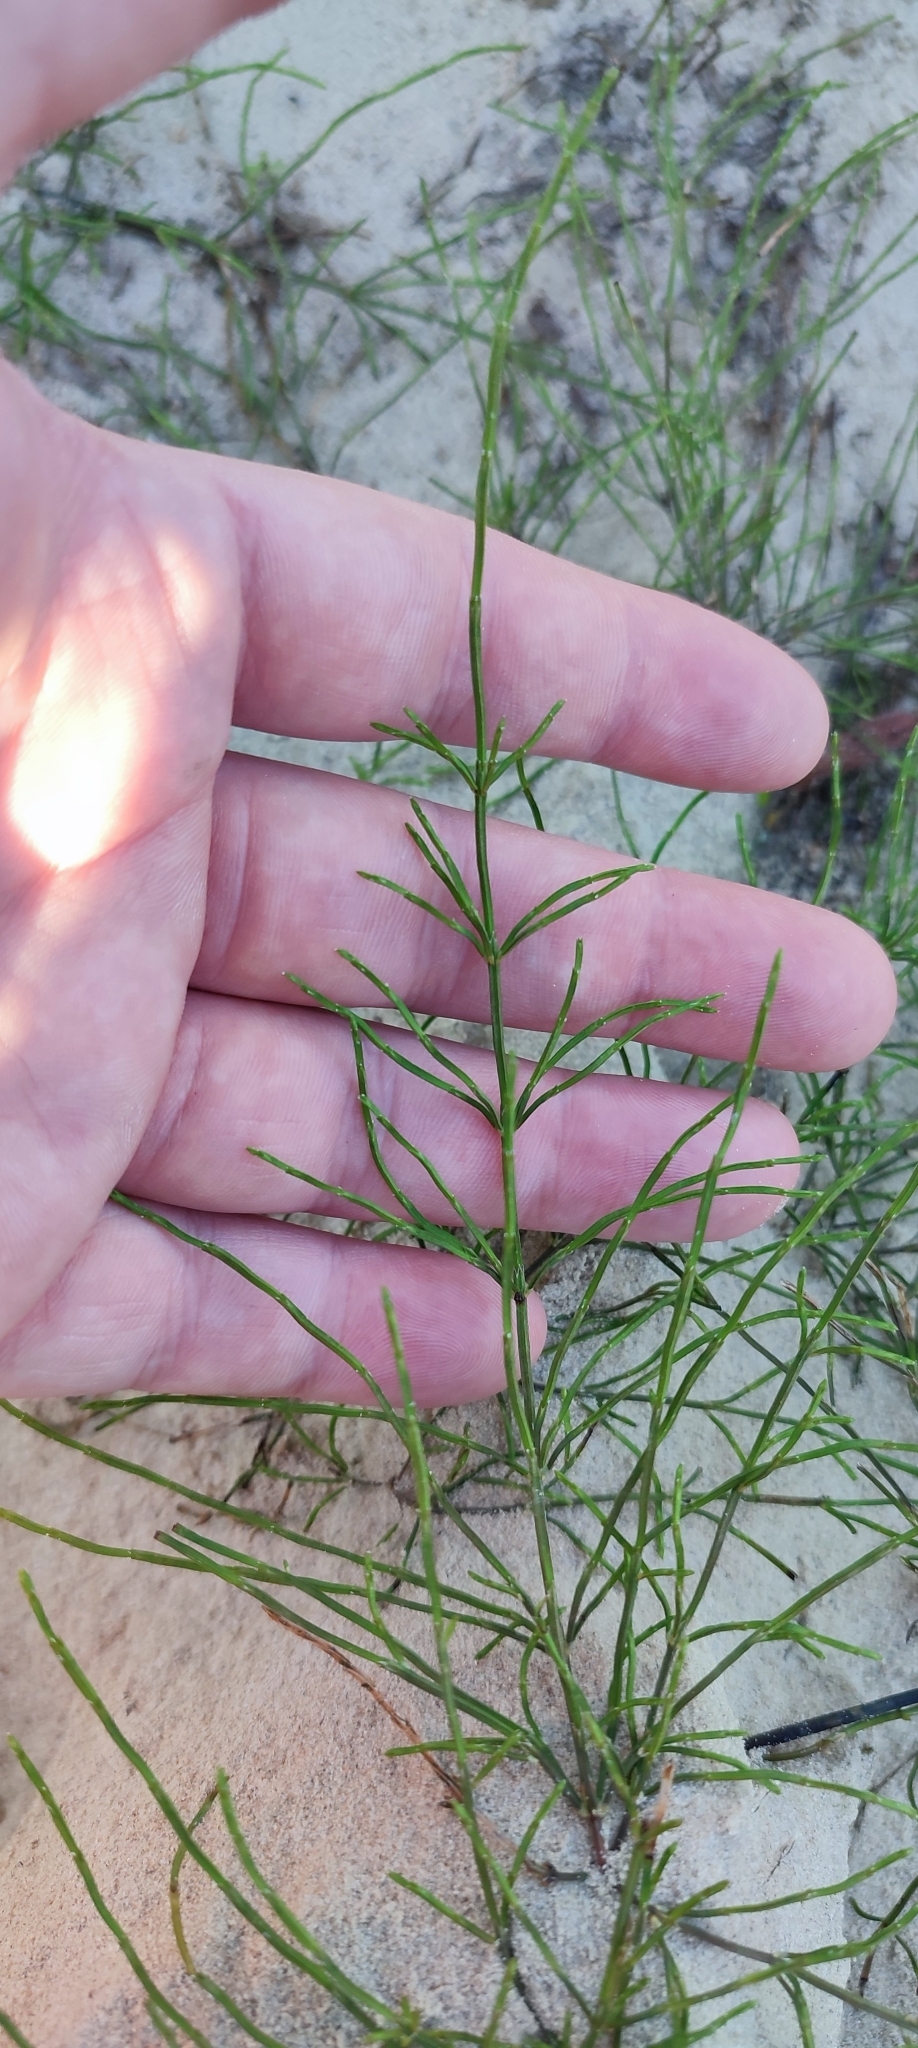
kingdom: Plantae
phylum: Tracheophyta
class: Polypodiopsida
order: Equisetales
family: Equisetaceae
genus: Equisetum
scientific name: Equisetum arvense
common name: Field horsetail
